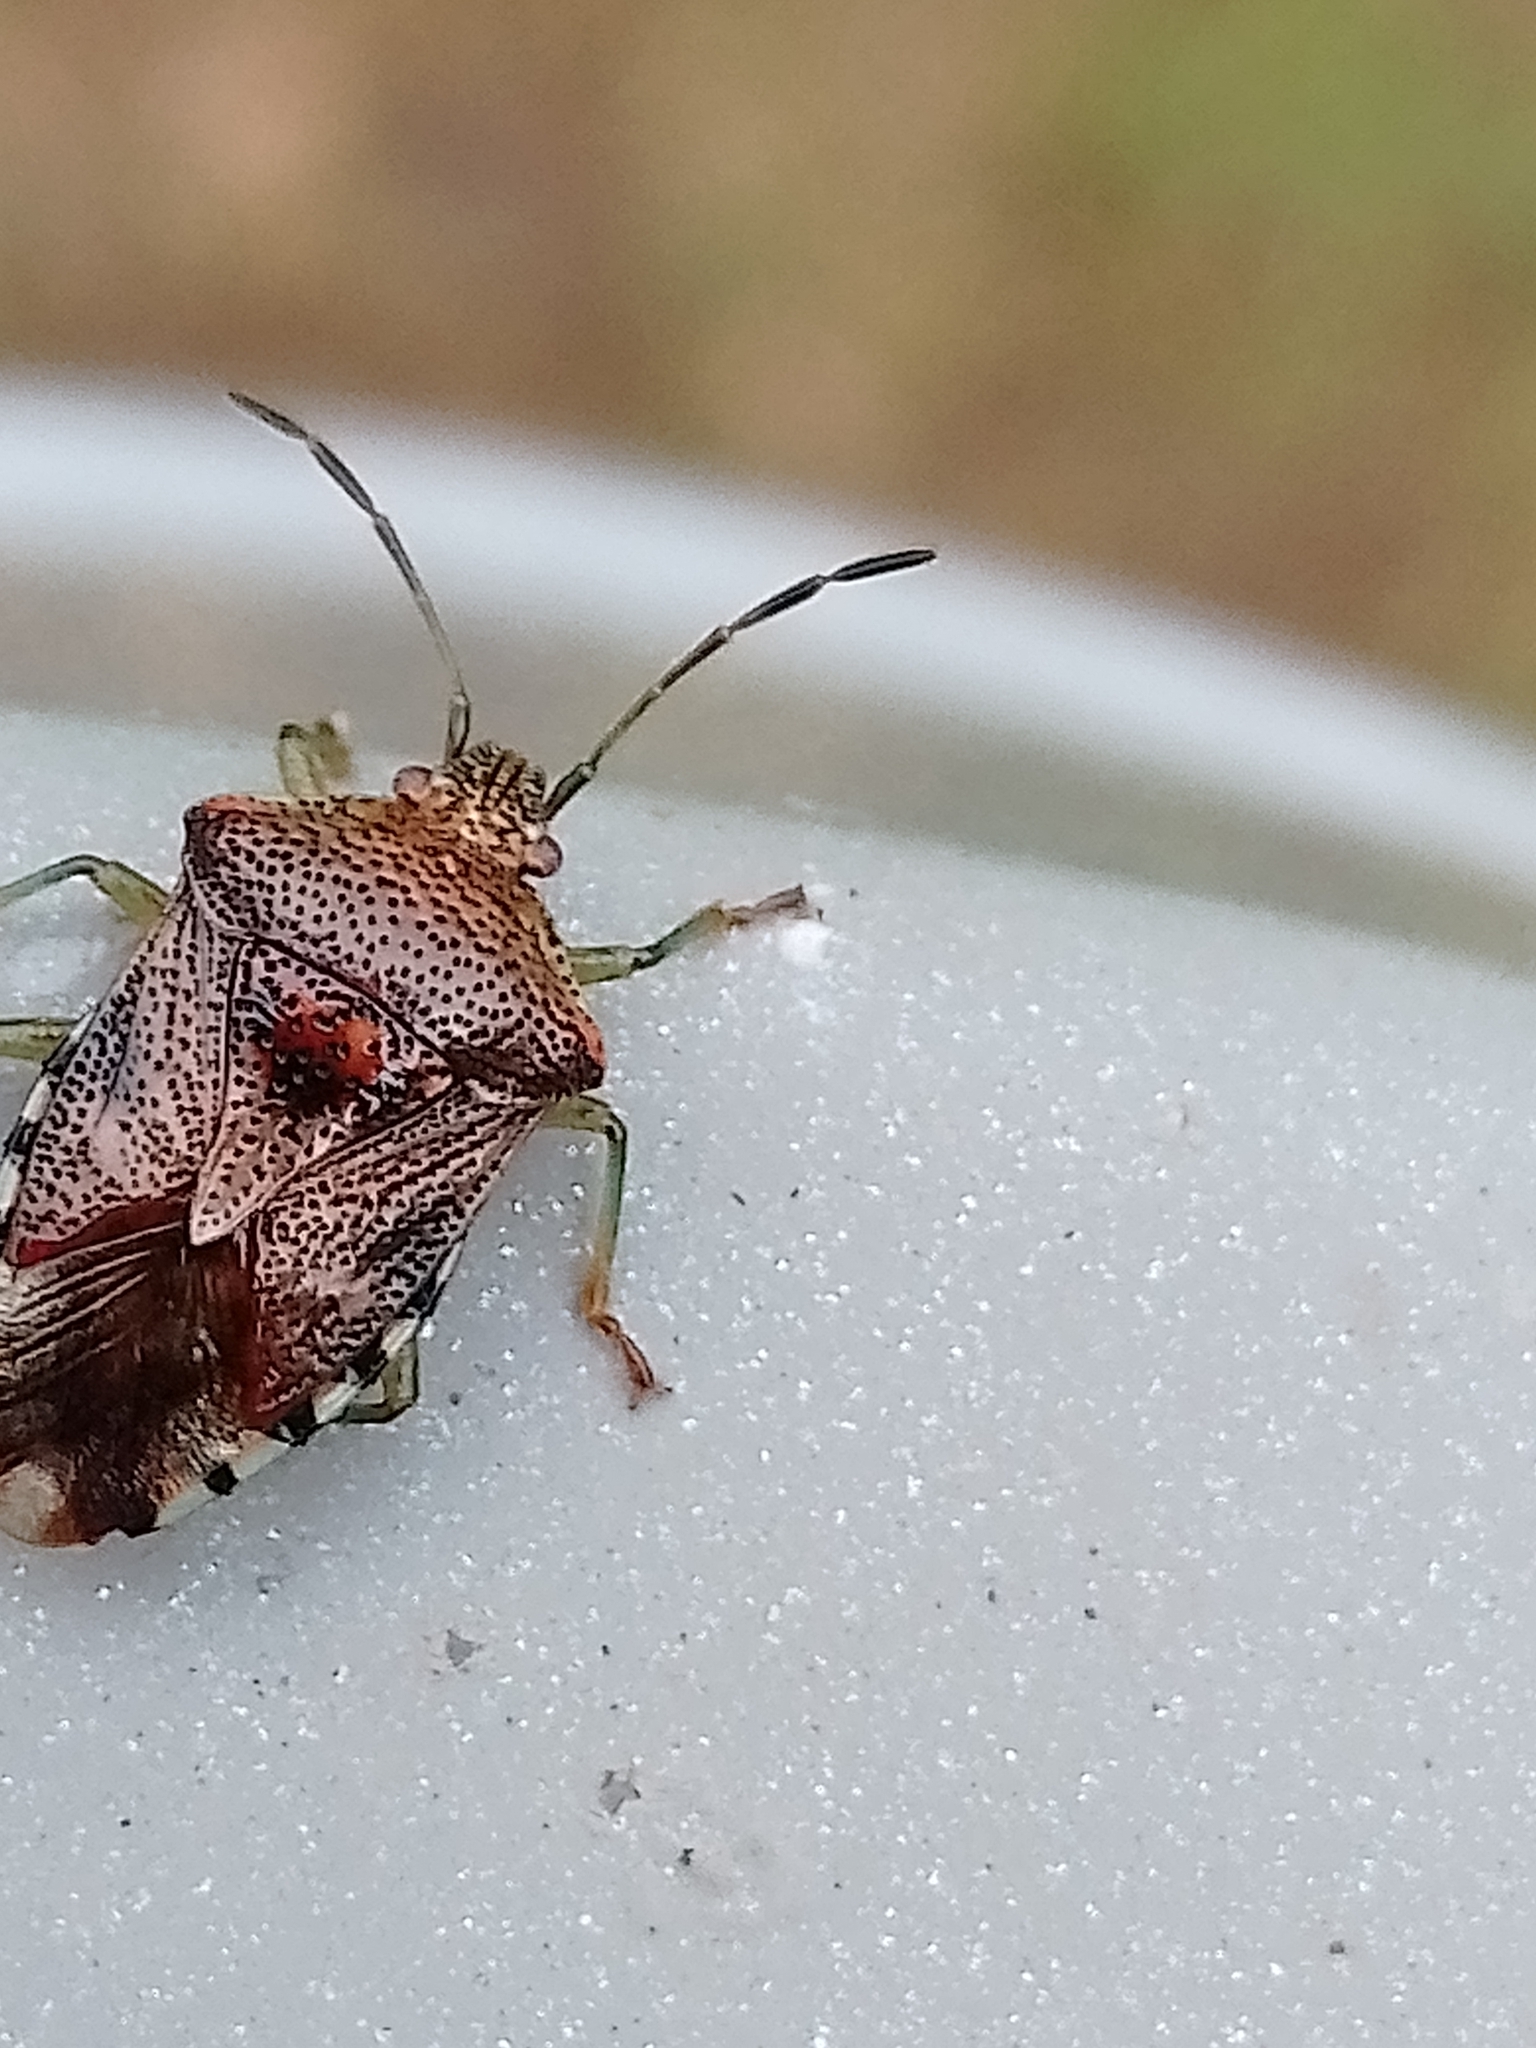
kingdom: Animalia
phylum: Arthropoda
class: Insecta
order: Hemiptera
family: Acanthosomatidae
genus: Elasmucha
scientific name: Elasmucha grisea
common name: Parent bug
